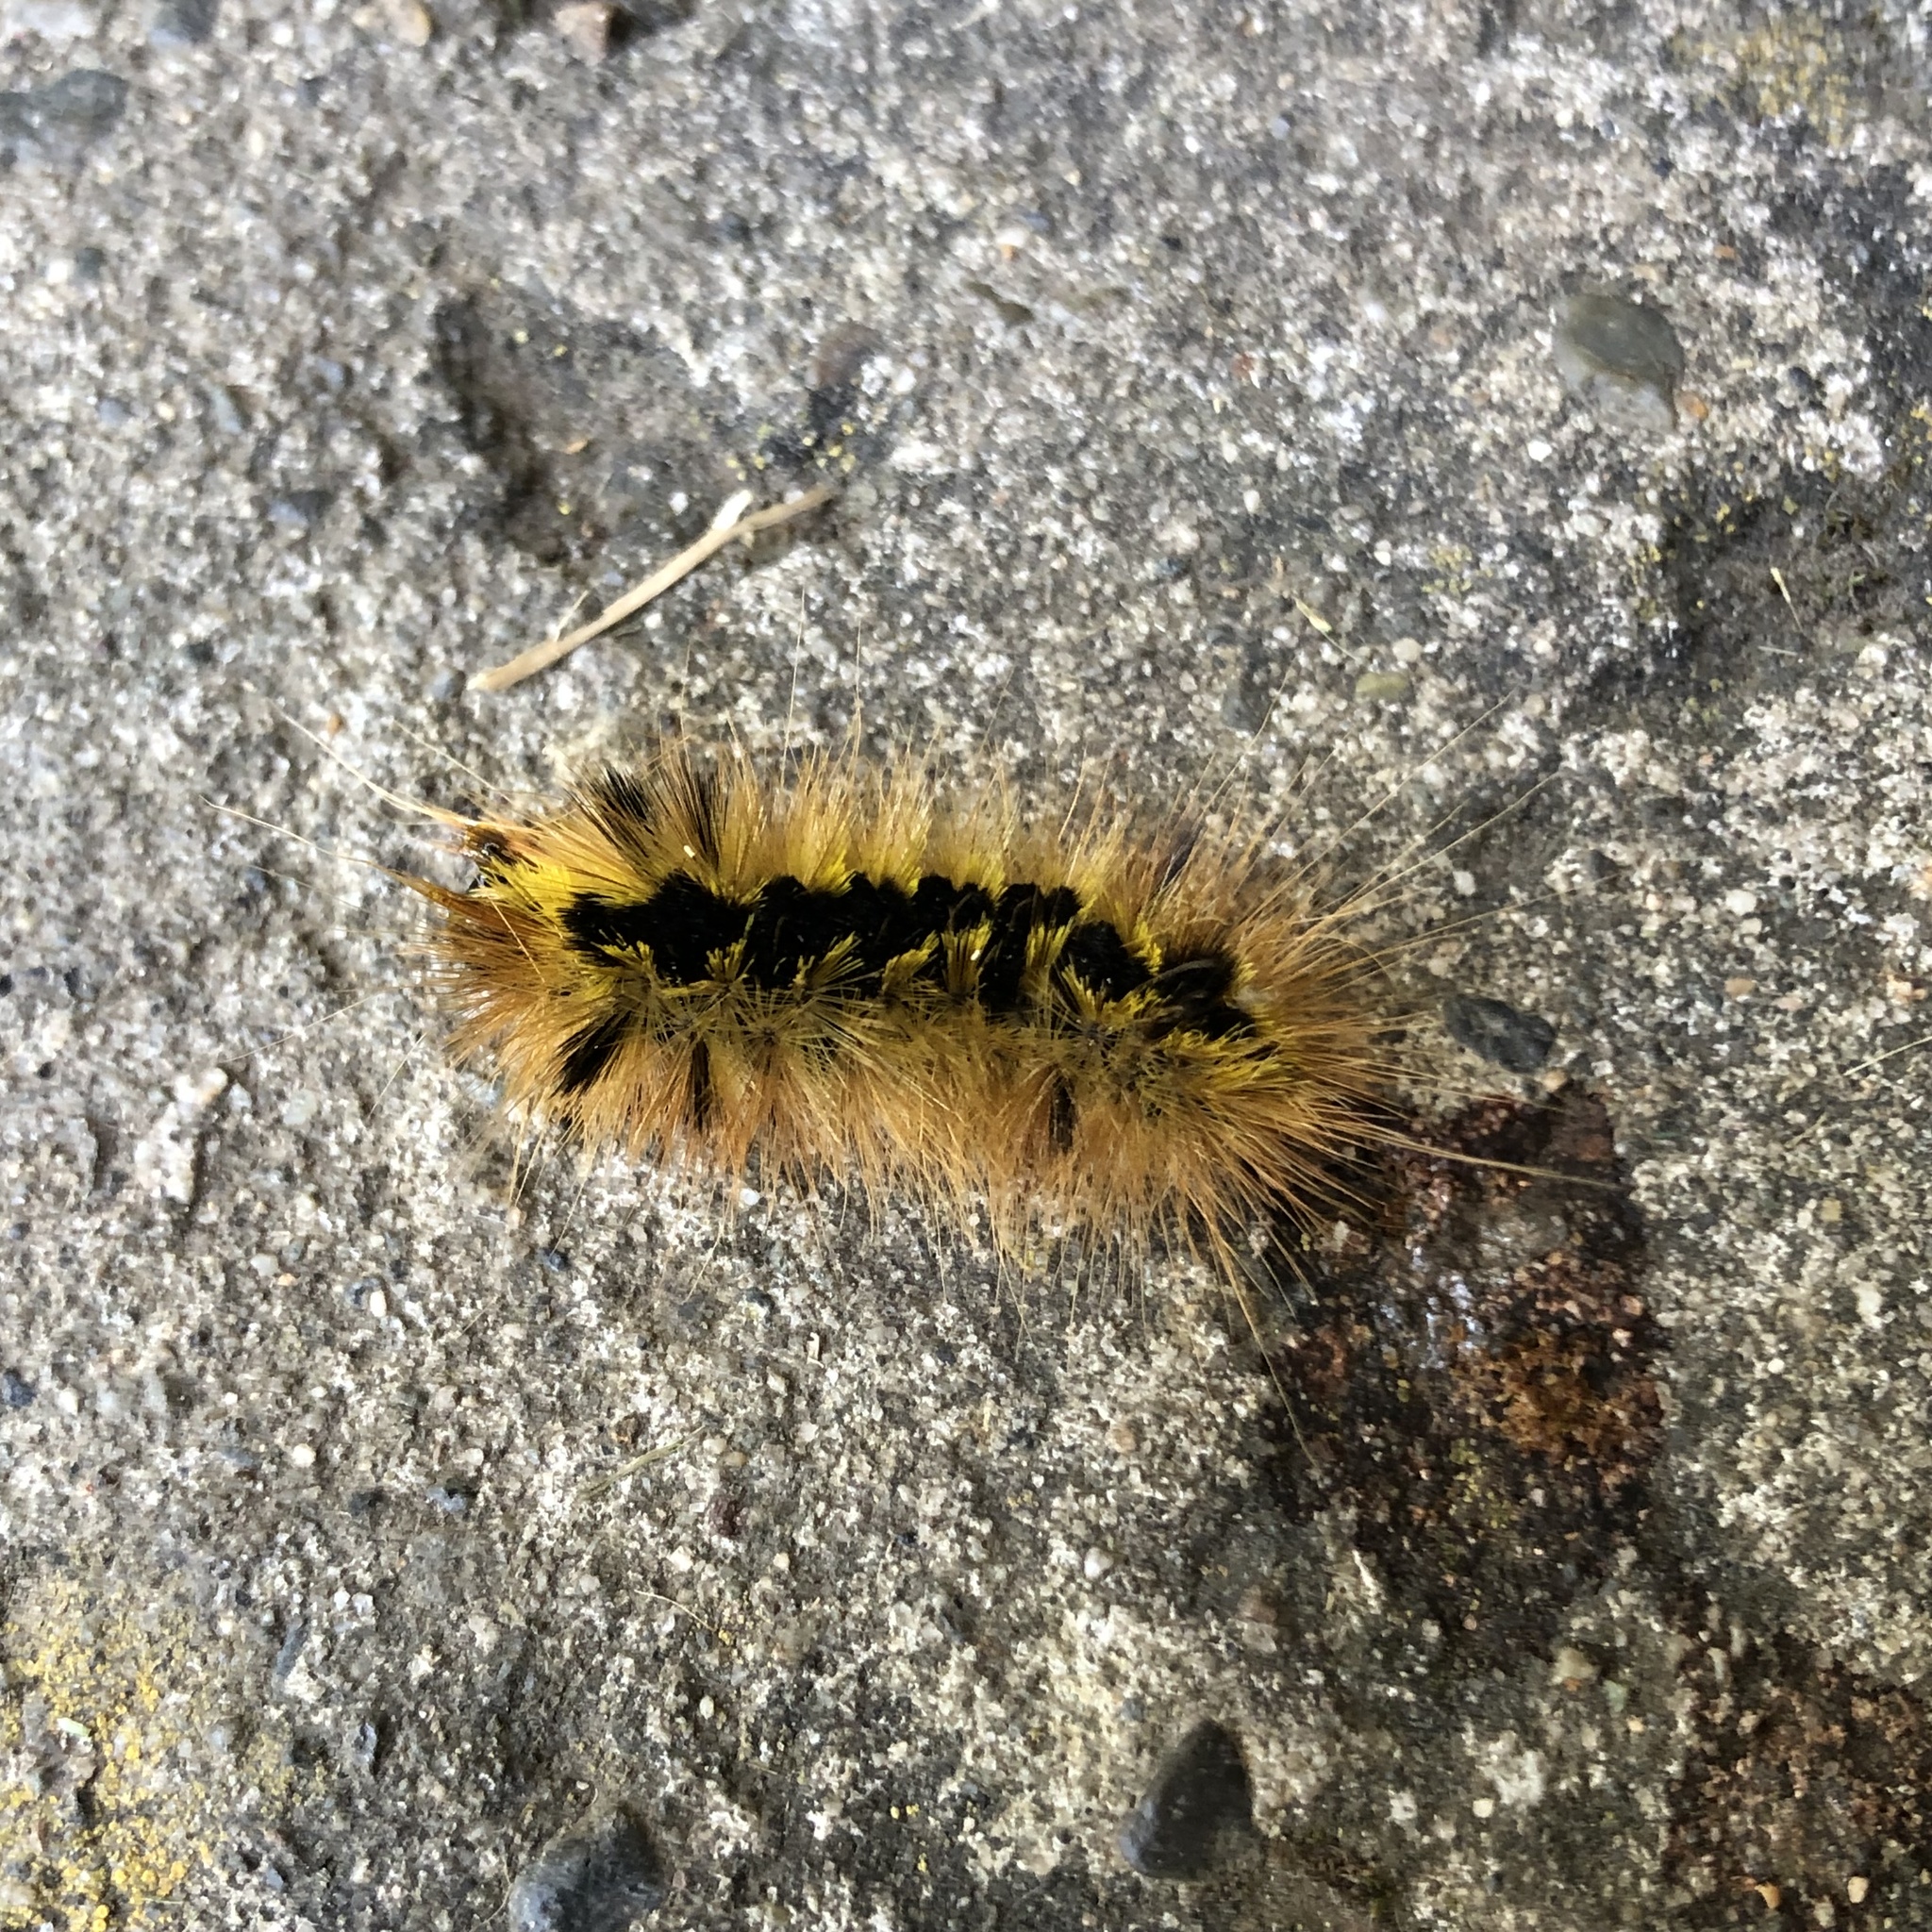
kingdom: Animalia
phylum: Arthropoda
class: Insecta
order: Lepidoptera
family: Erebidae
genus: Lophocampa
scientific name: Lophocampa argentata
